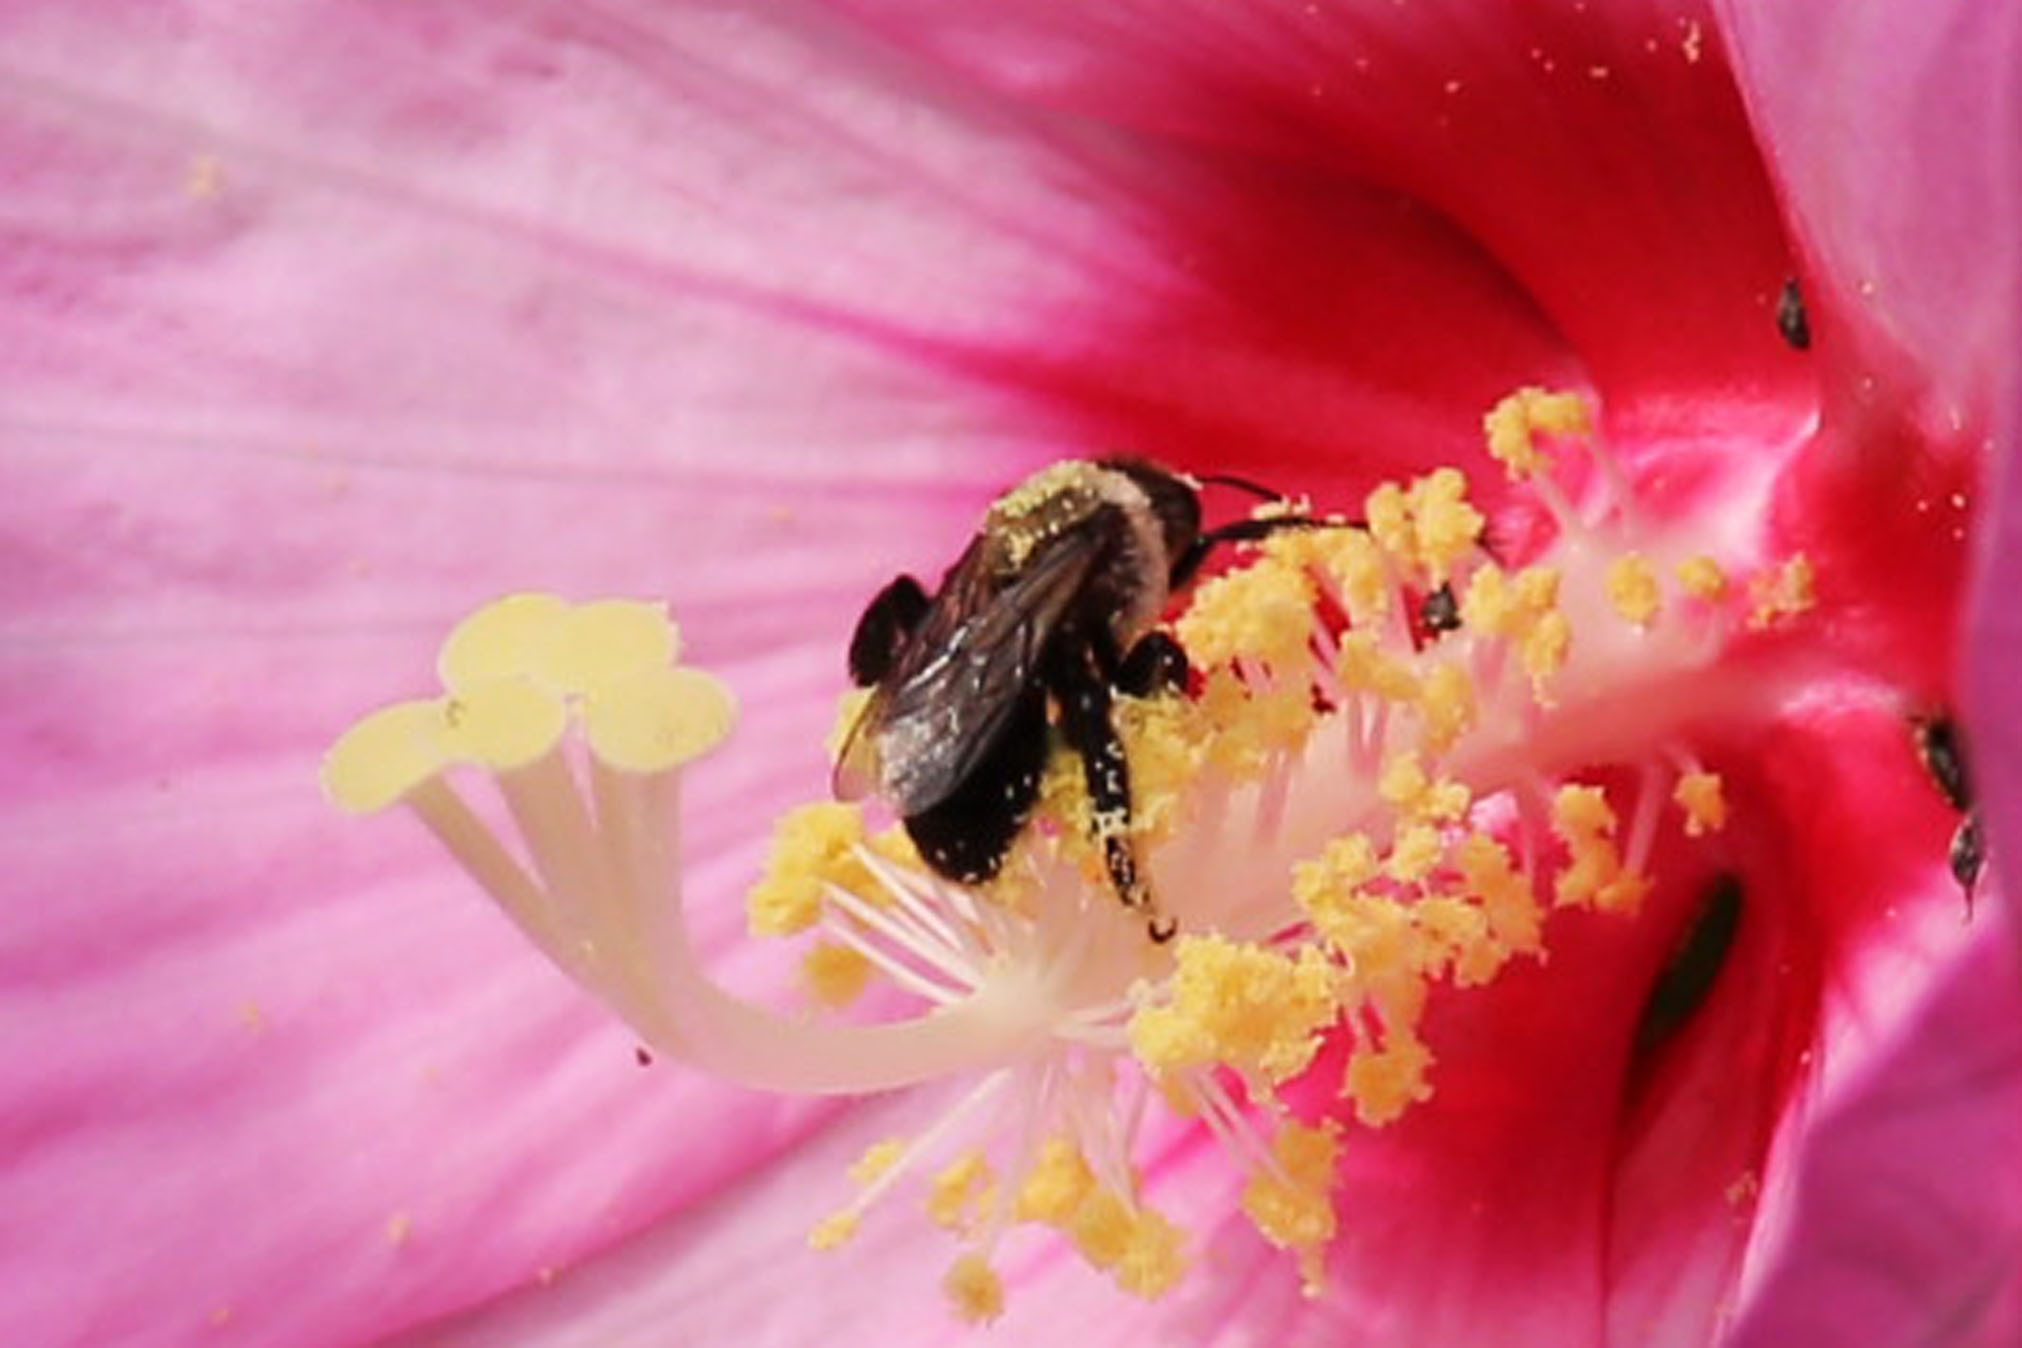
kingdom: Animalia
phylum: Arthropoda
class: Insecta
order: Hymenoptera
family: Apidae
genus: Ptilothrix
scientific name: Ptilothrix bombiformis
